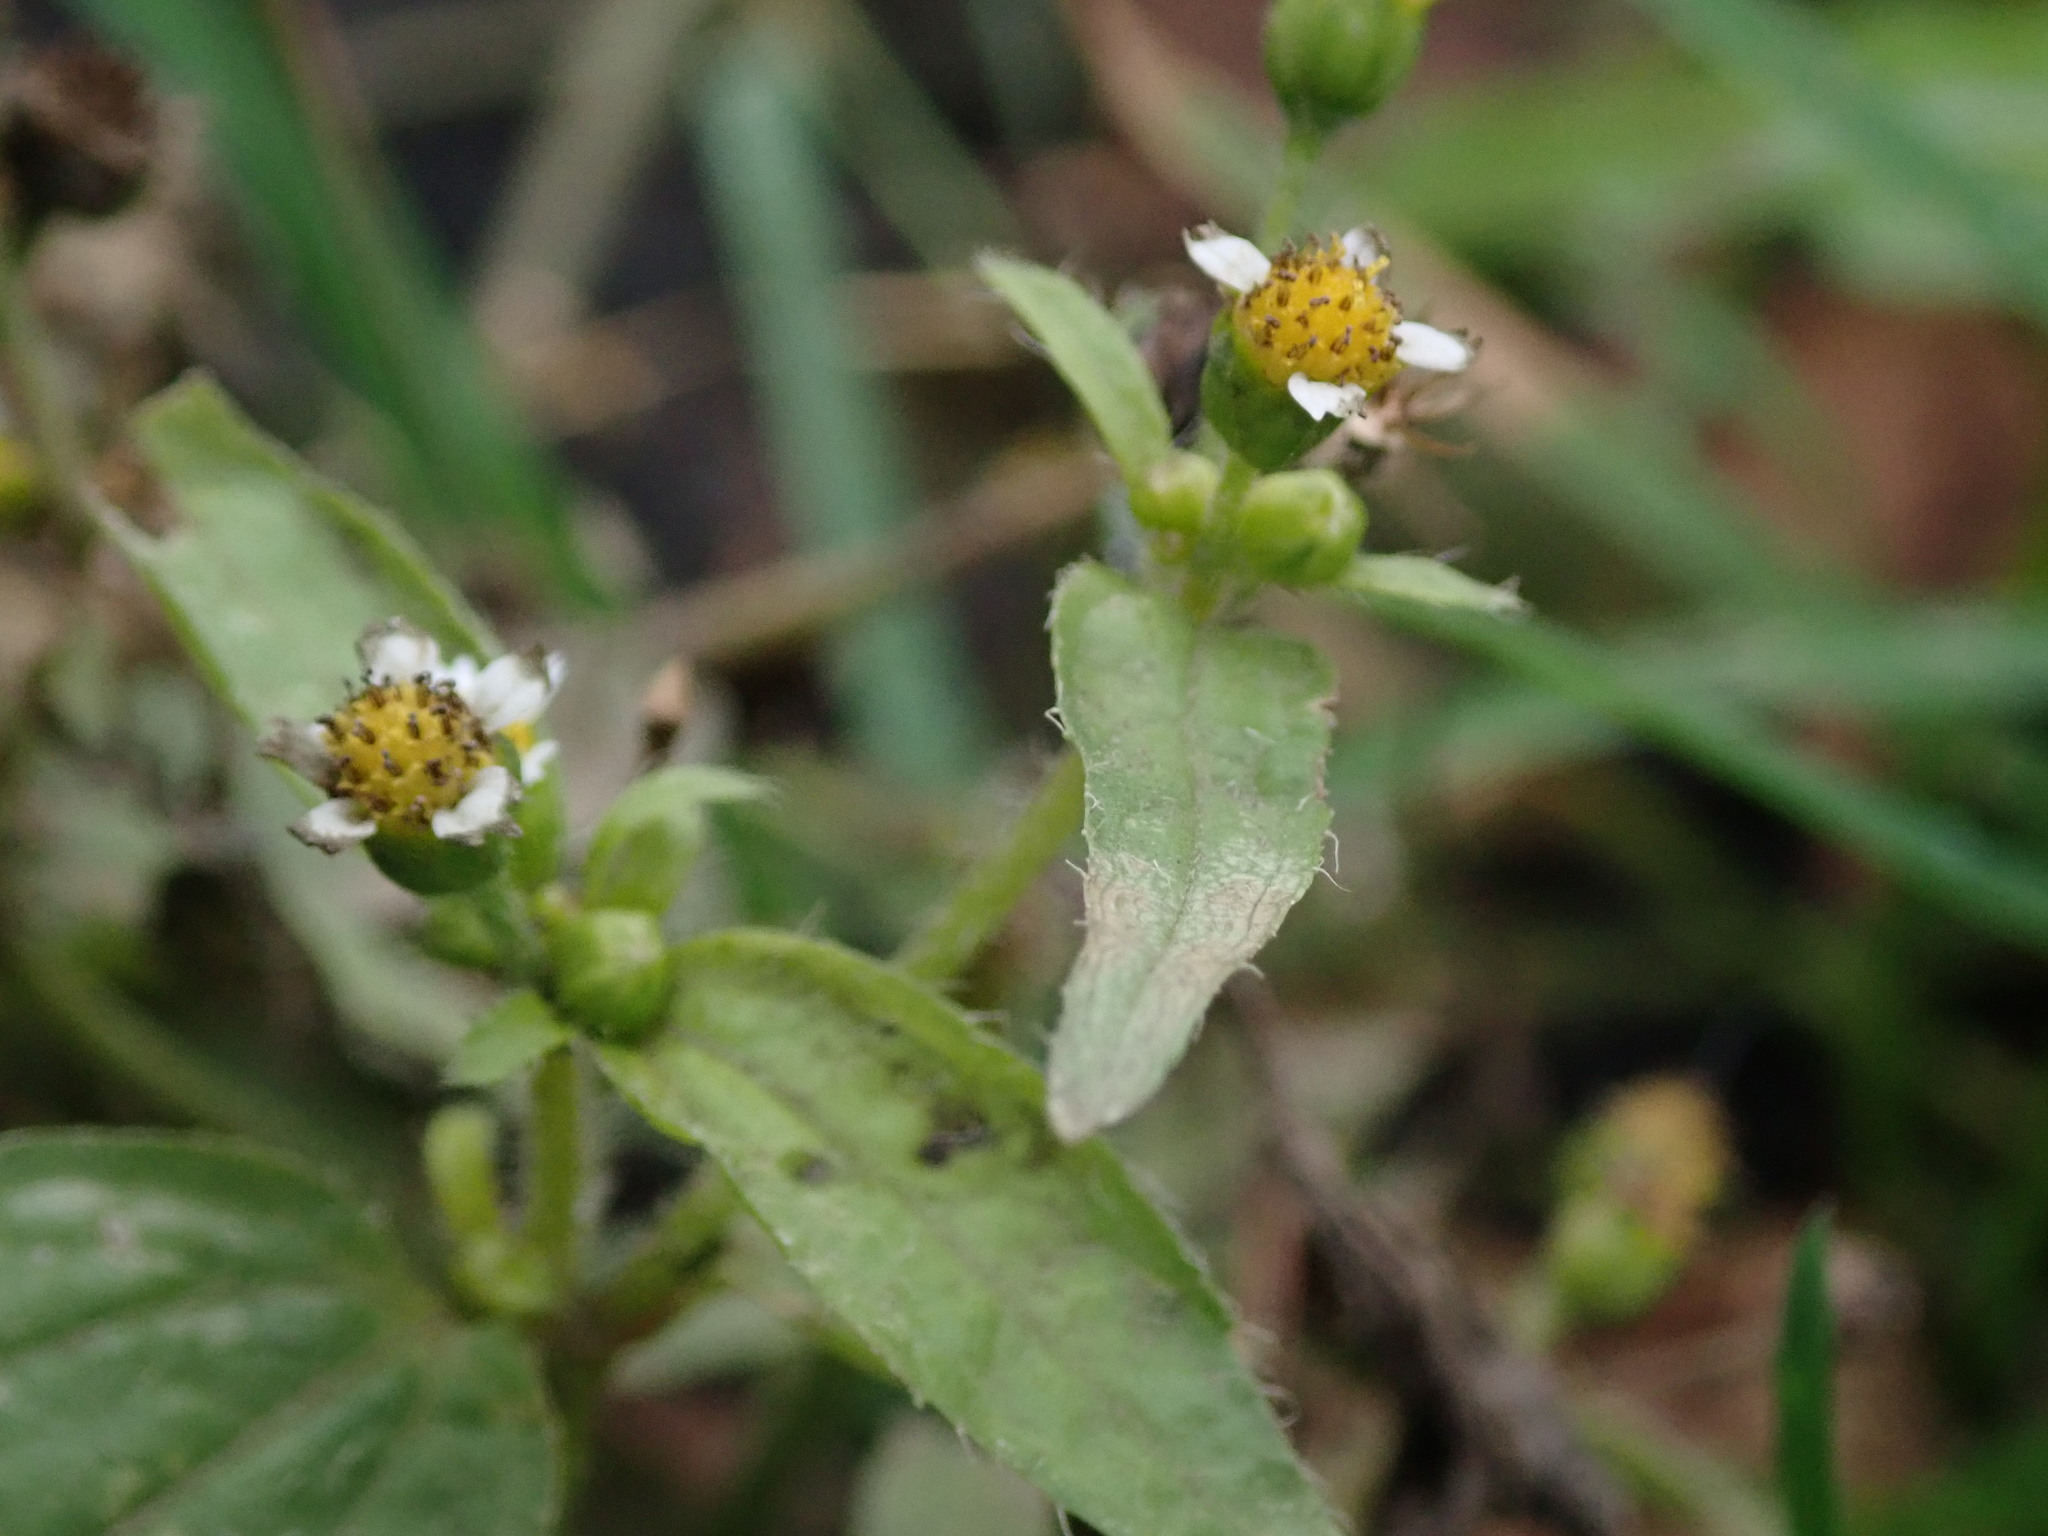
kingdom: Plantae
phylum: Tracheophyta
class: Magnoliopsida
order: Asterales
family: Asteraceae
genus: Galinsoga
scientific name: Galinsoga quadriradiata
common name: Shaggy soldier
